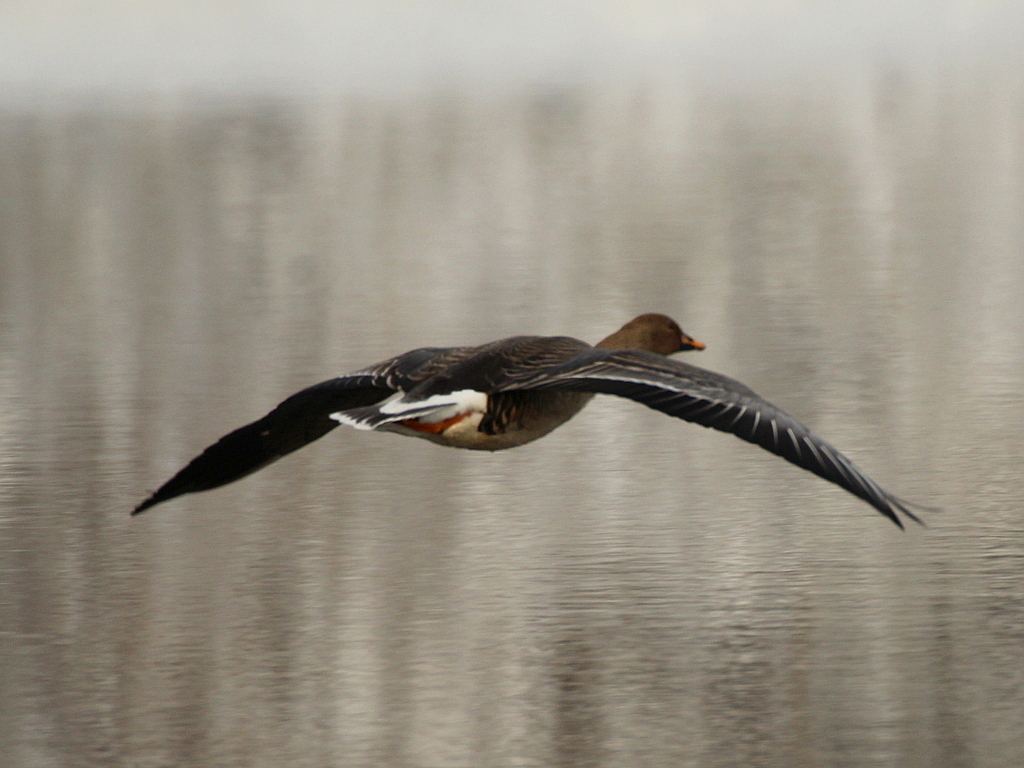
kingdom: Animalia
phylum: Chordata
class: Aves
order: Anseriformes
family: Anatidae
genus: Anser
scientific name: Anser fabalis
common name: Bean goose
